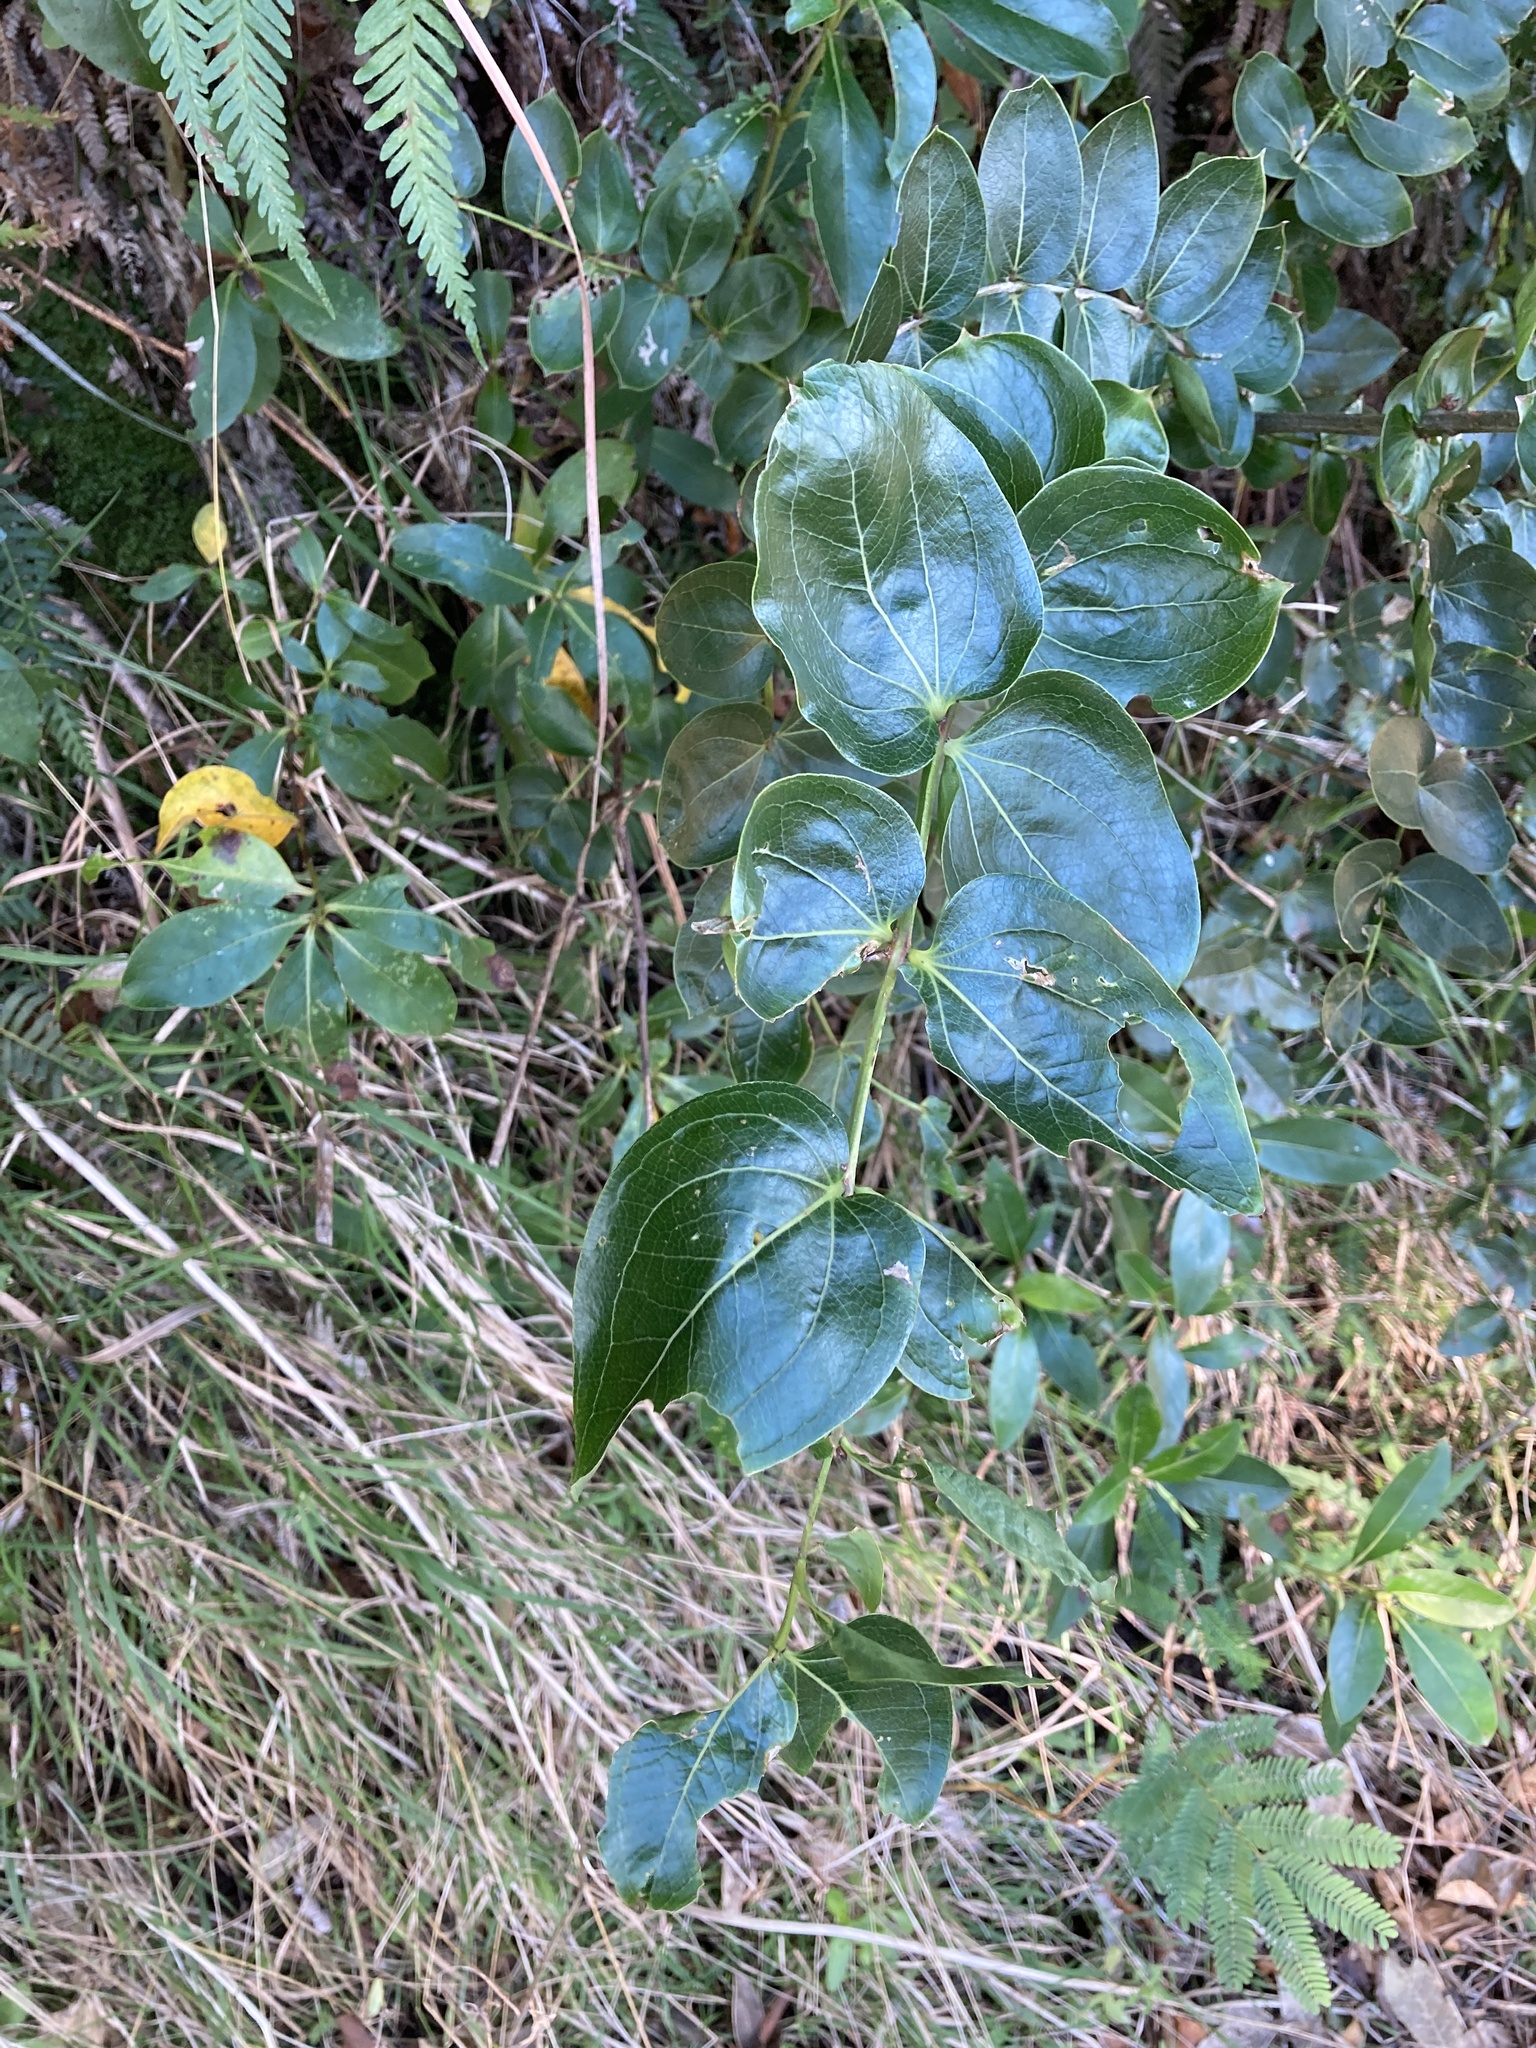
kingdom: Plantae
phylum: Tracheophyta
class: Magnoliopsida
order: Cucurbitales
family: Coriariaceae
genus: Coriaria
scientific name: Coriaria arborea
